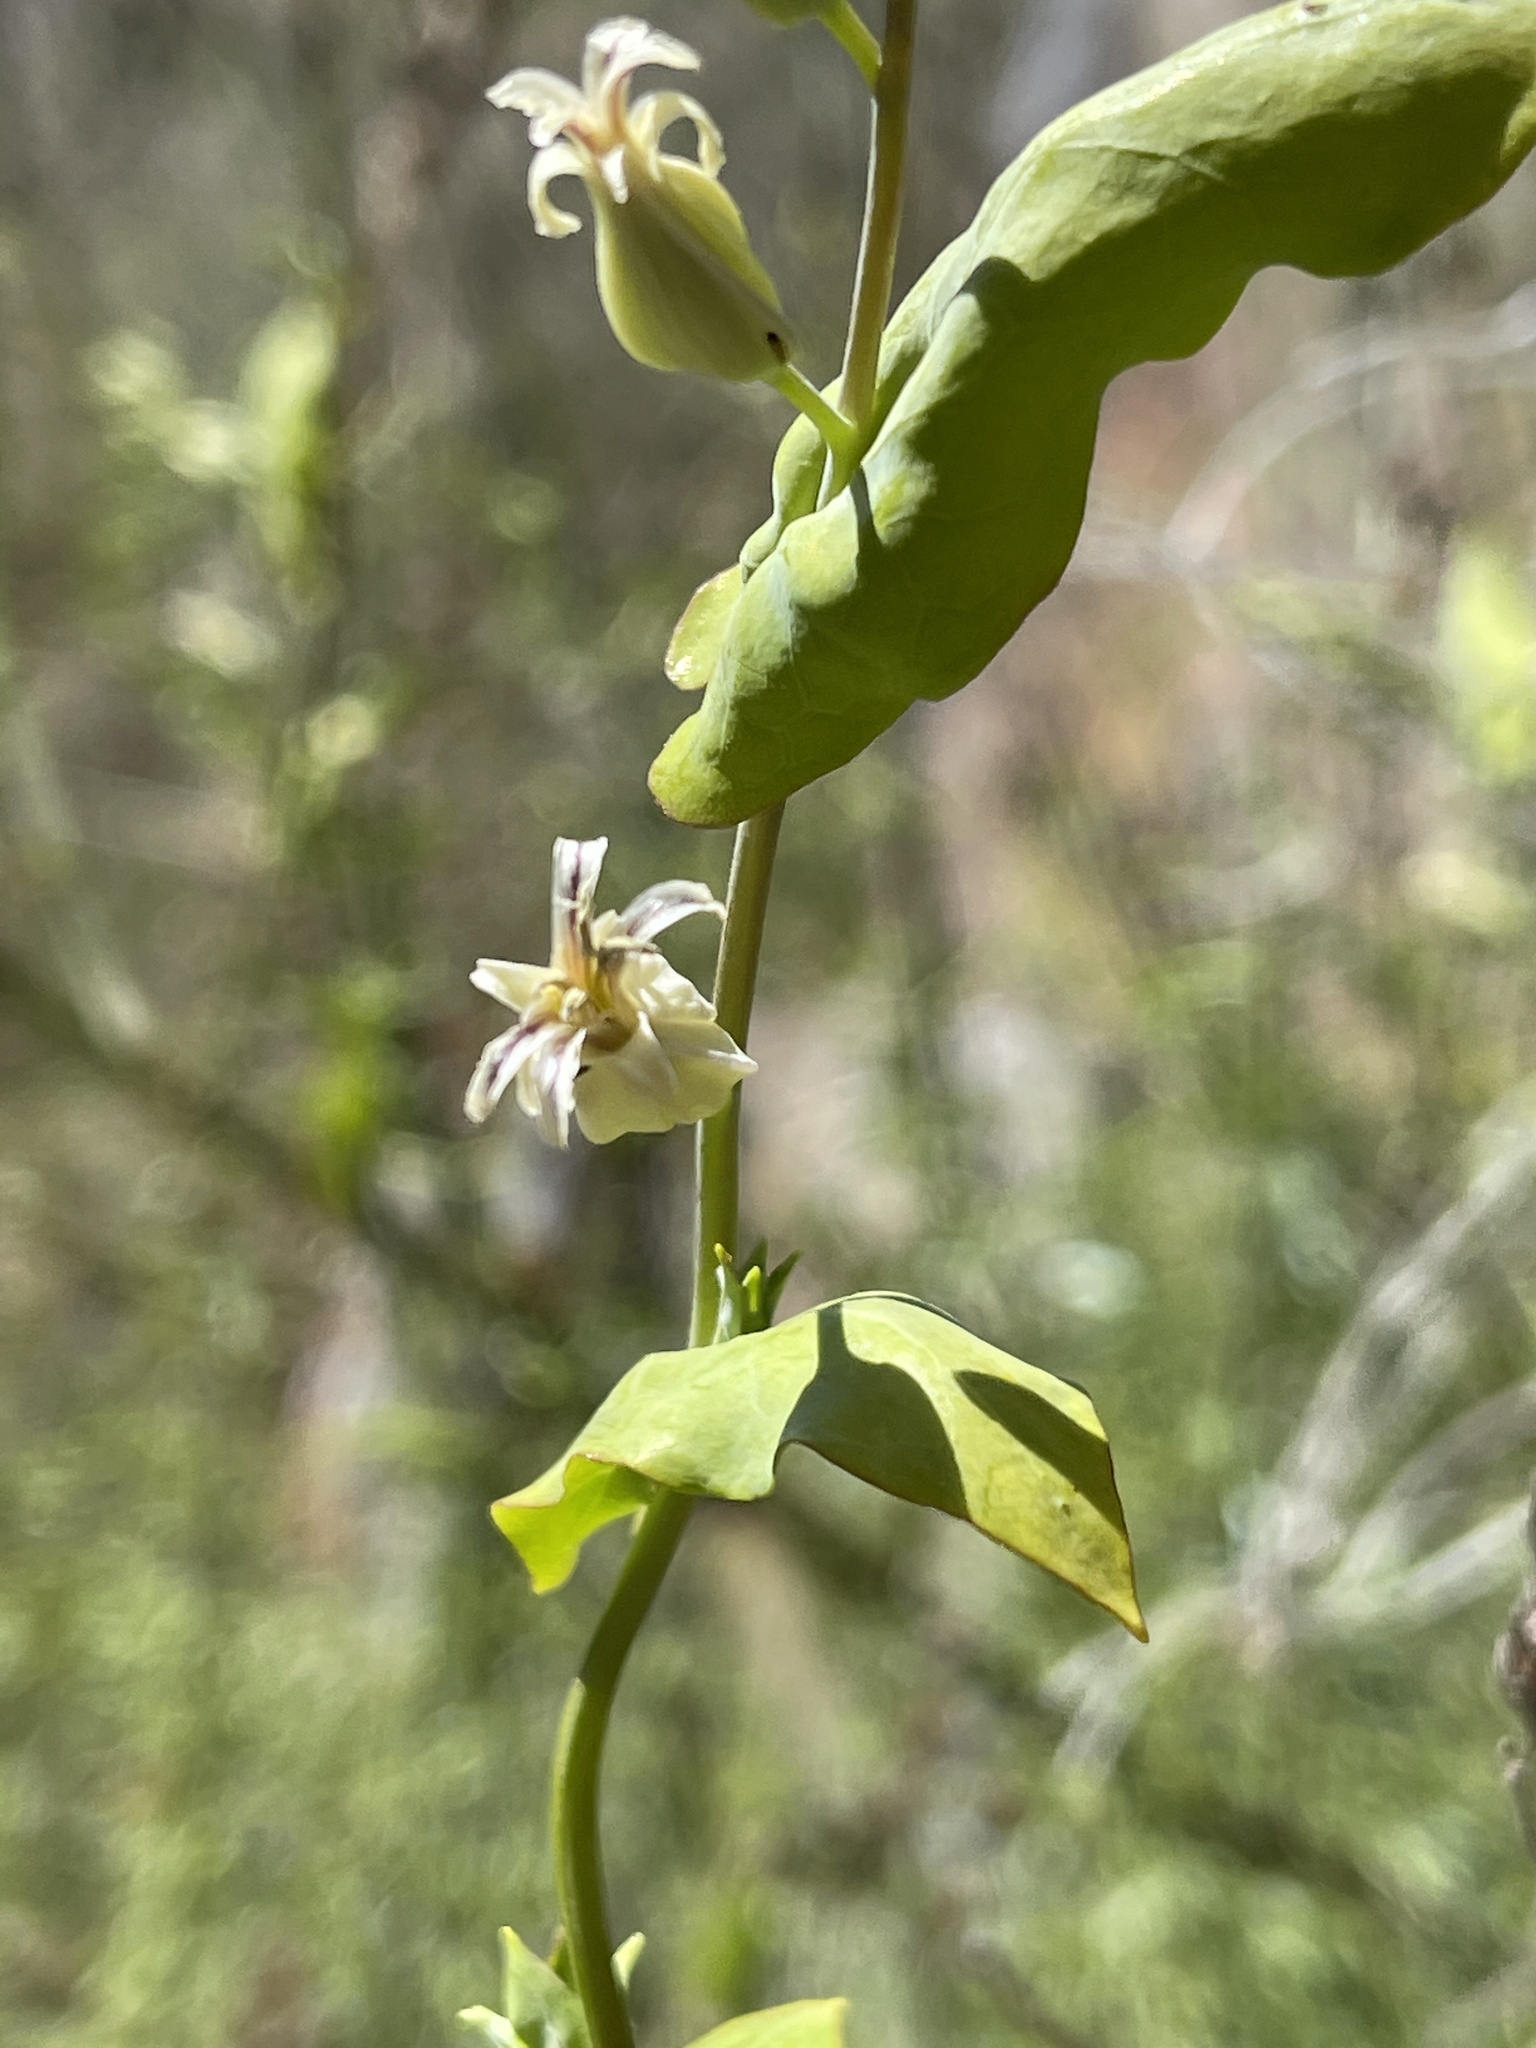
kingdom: Plantae
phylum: Tracheophyta
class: Magnoliopsida
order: Brassicales
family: Brassicaceae
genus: Streptanthus
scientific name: Streptanthus tortuosus
